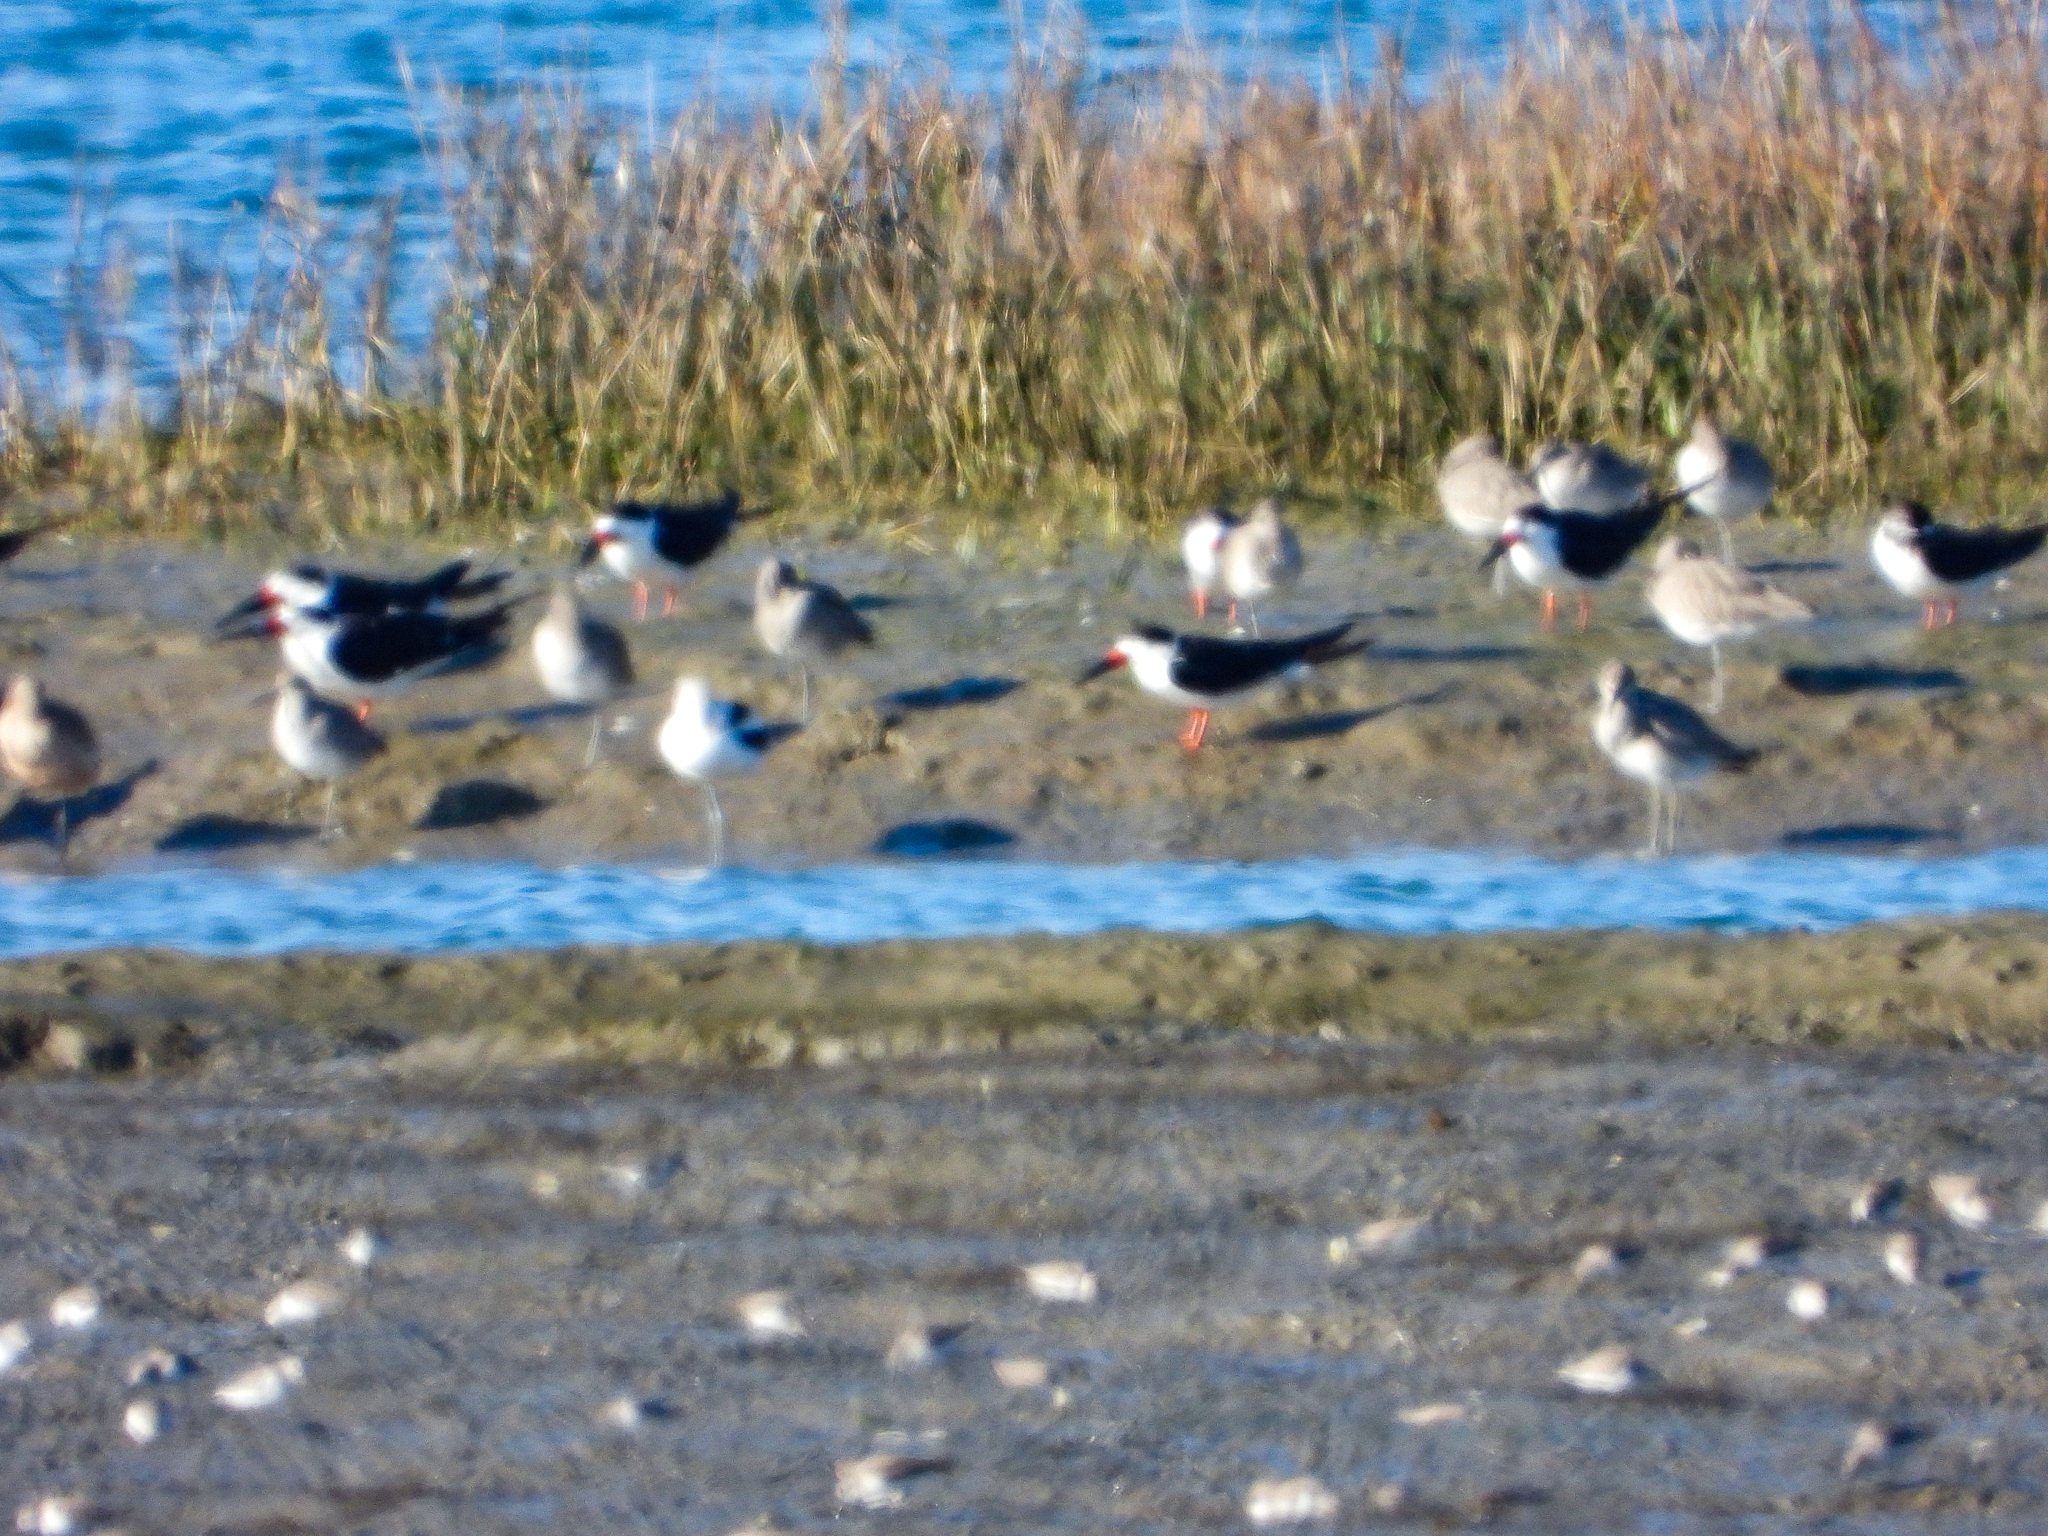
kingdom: Animalia
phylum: Chordata
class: Aves
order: Charadriiformes
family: Laridae
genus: Rynchops
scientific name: Rynchops niger
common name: Black skimmer
